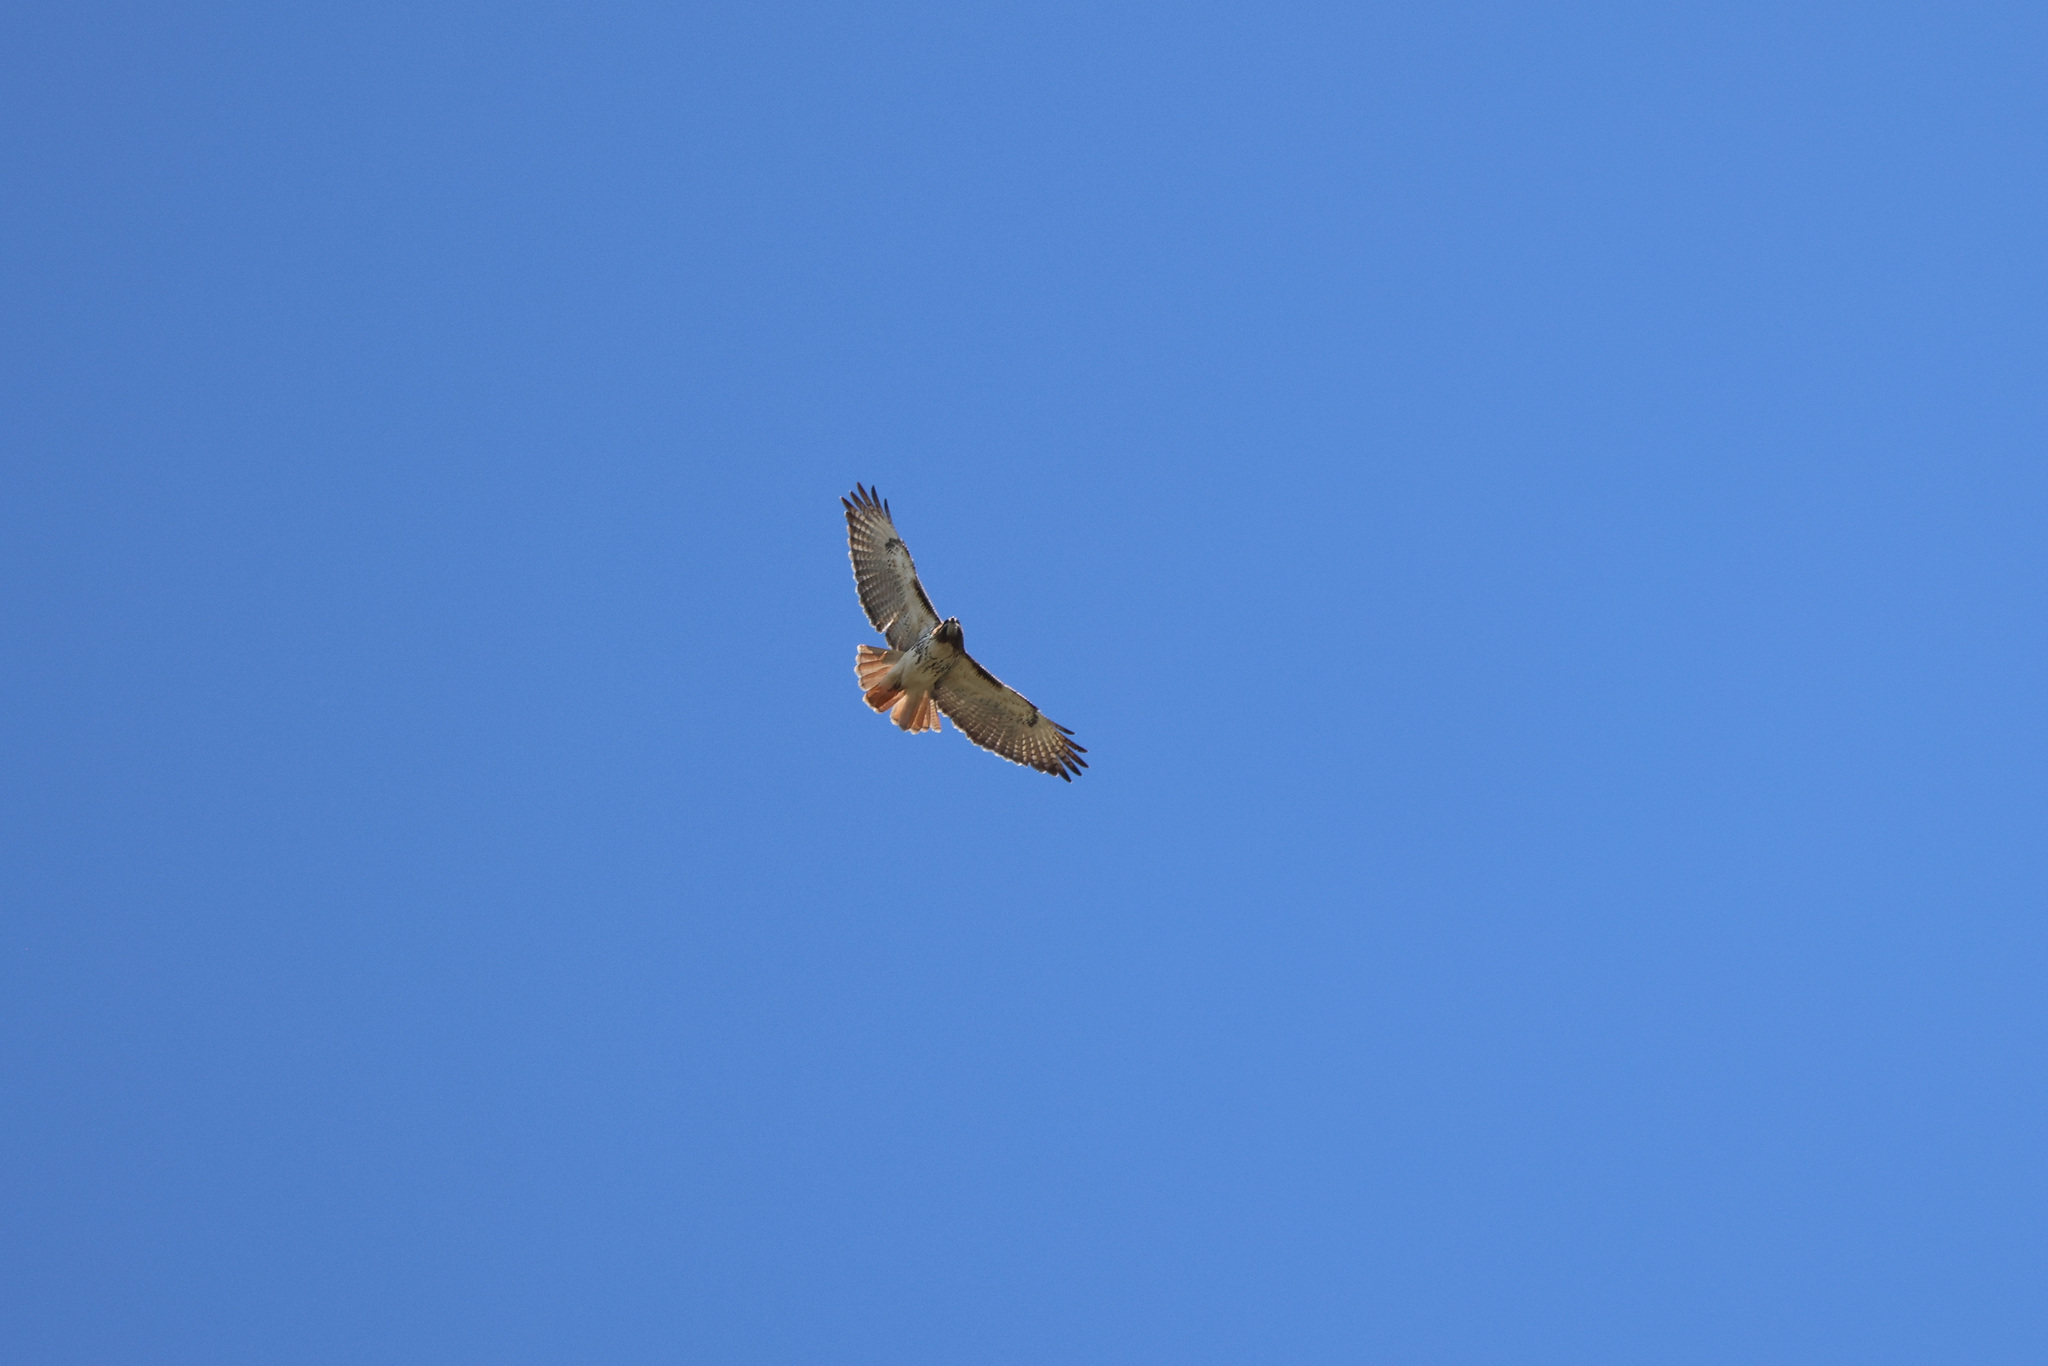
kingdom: Animalia
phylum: Chordata
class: Aves
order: Accipitriformes
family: Accipitridae
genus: Buteo
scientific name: Buteo jamaicensis
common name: Red-tailed hawk
